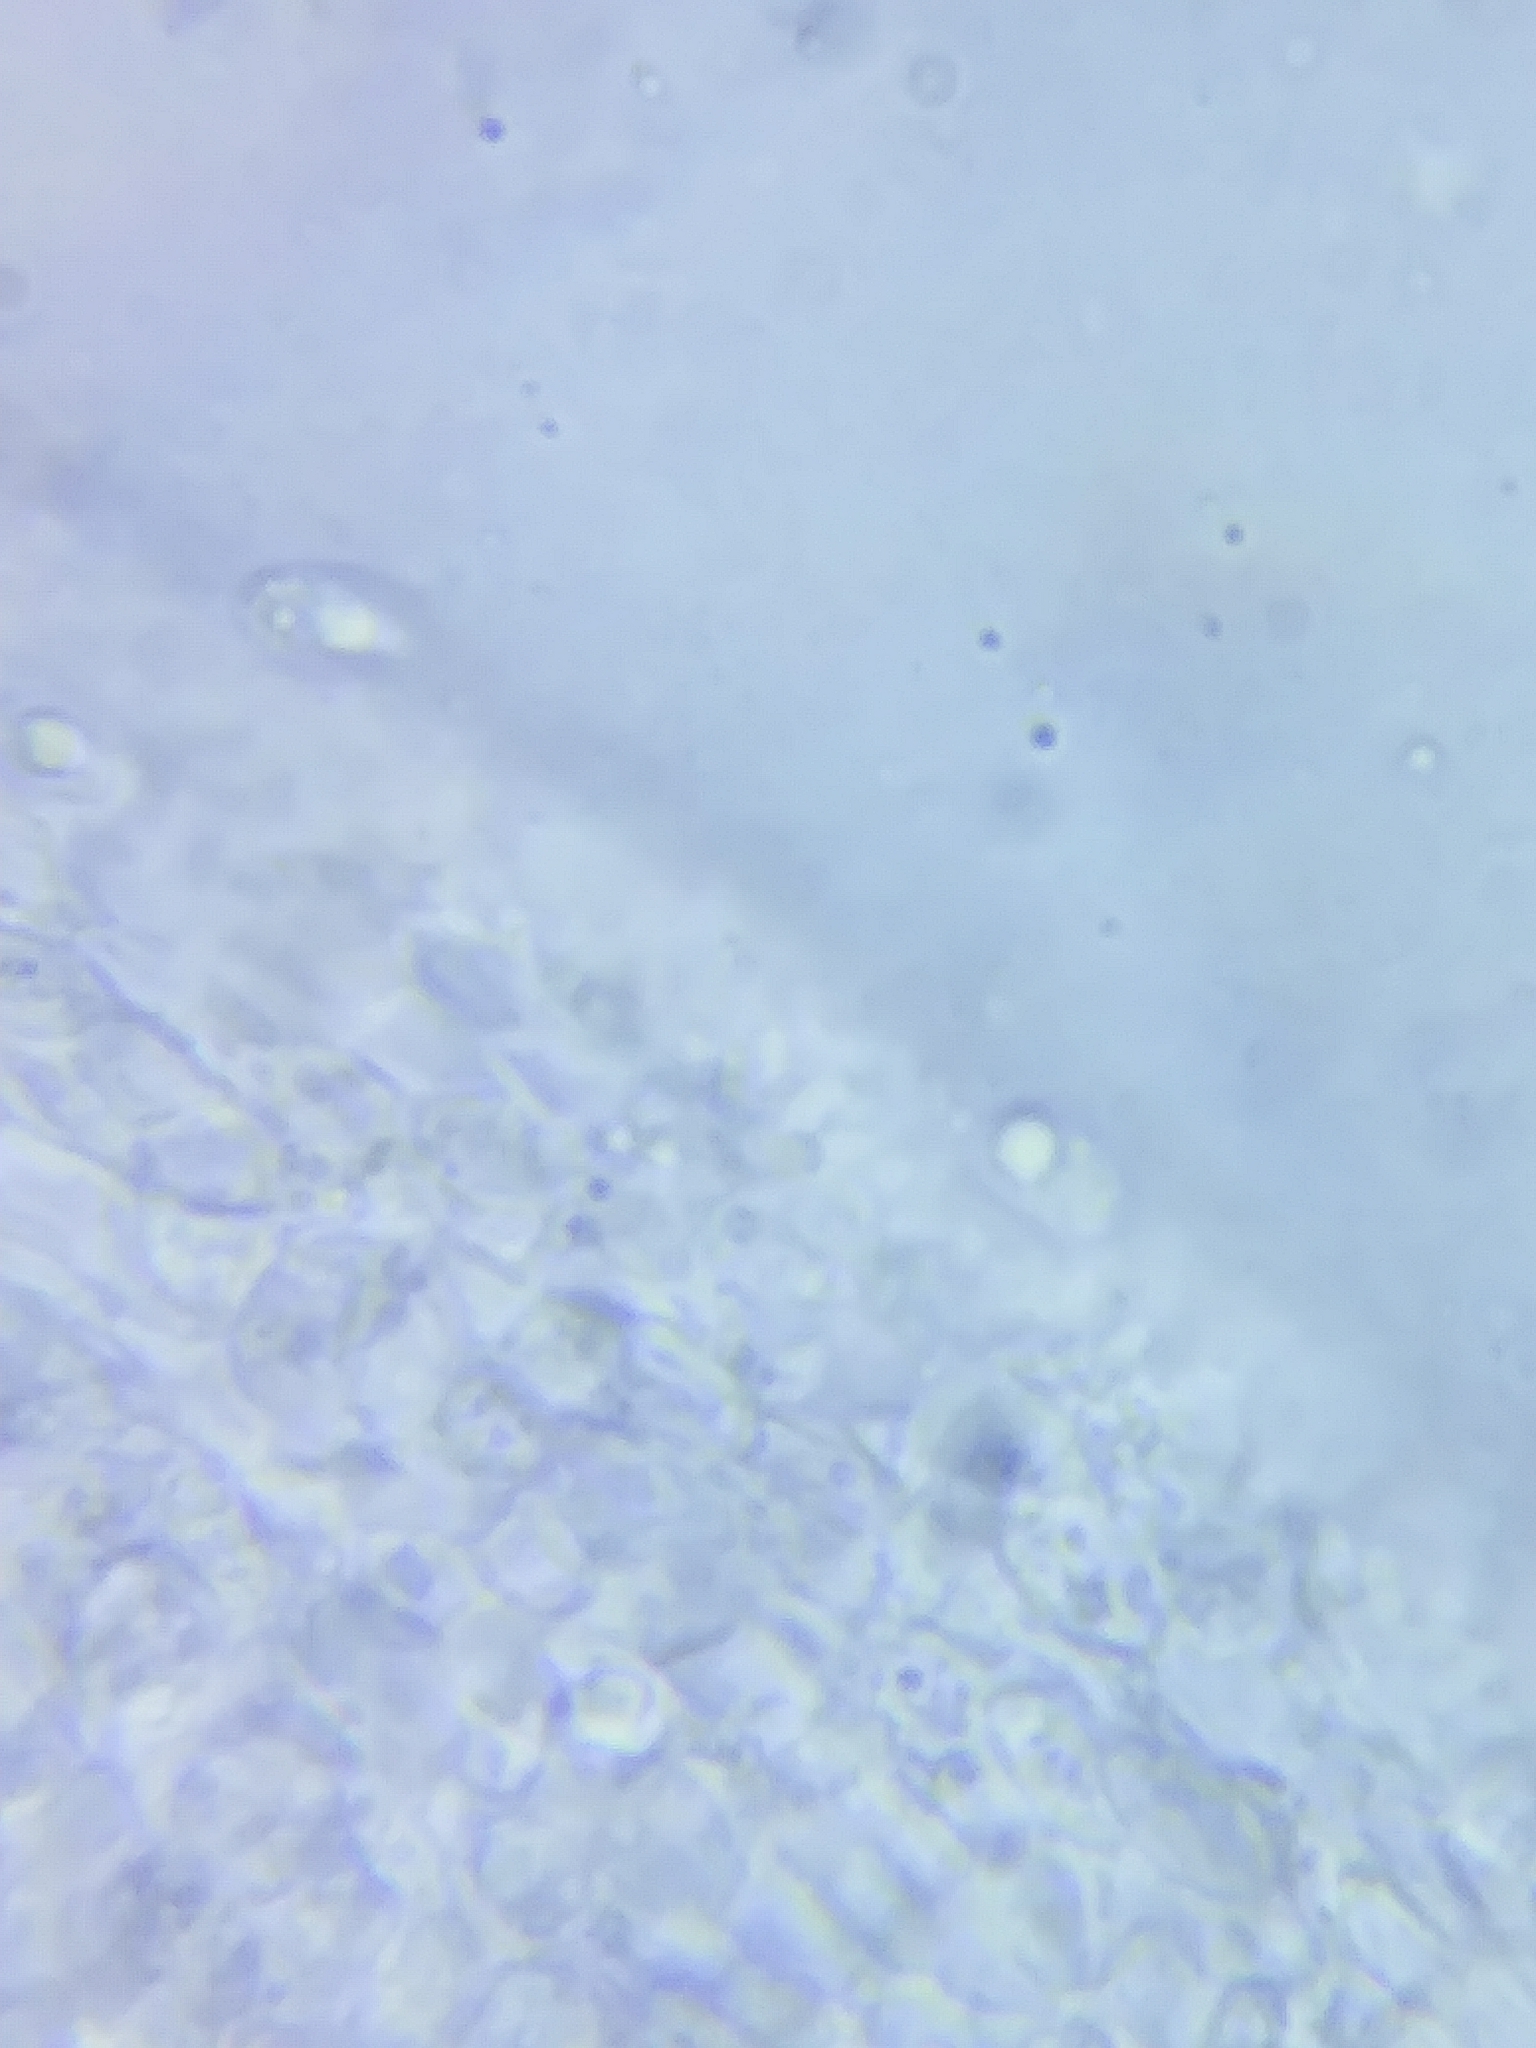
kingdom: Fungi
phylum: Basidiomycota
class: Agaricomycetes
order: Agaricales
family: Marasmiaceae
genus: Marasmius
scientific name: Marasmius minutissimus
